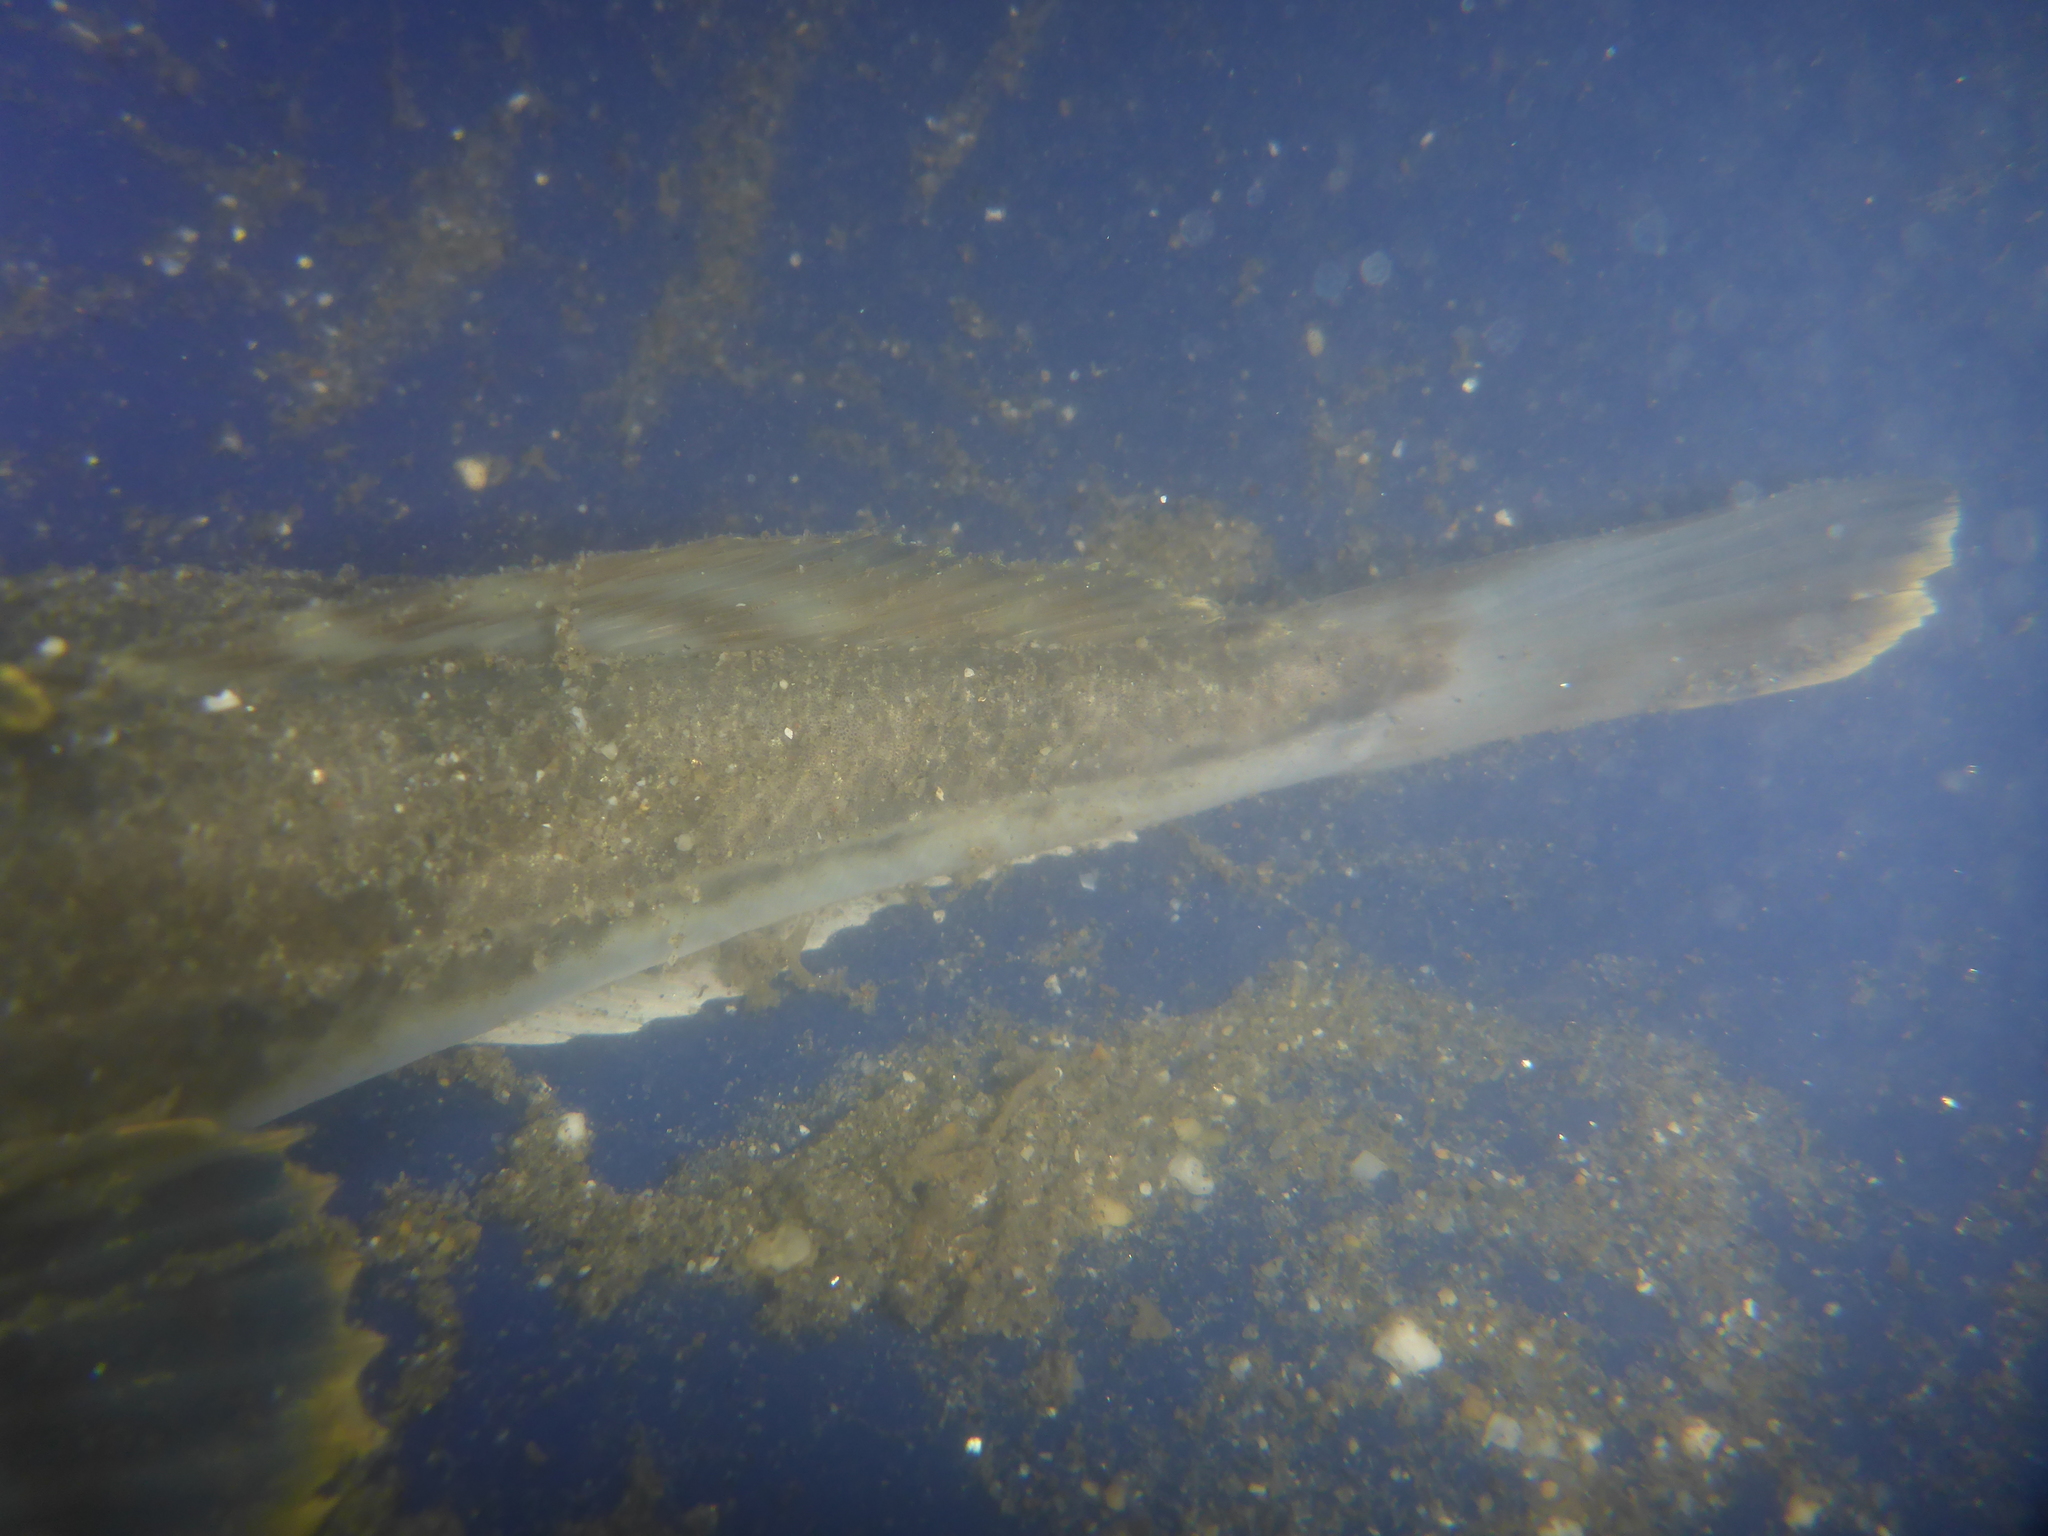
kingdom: Animalia
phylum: Chordata
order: Scorpaeniformes
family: Cottidae
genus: Leptocottus
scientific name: Leptocottus armatus
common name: Pacific staghorn sculpin
